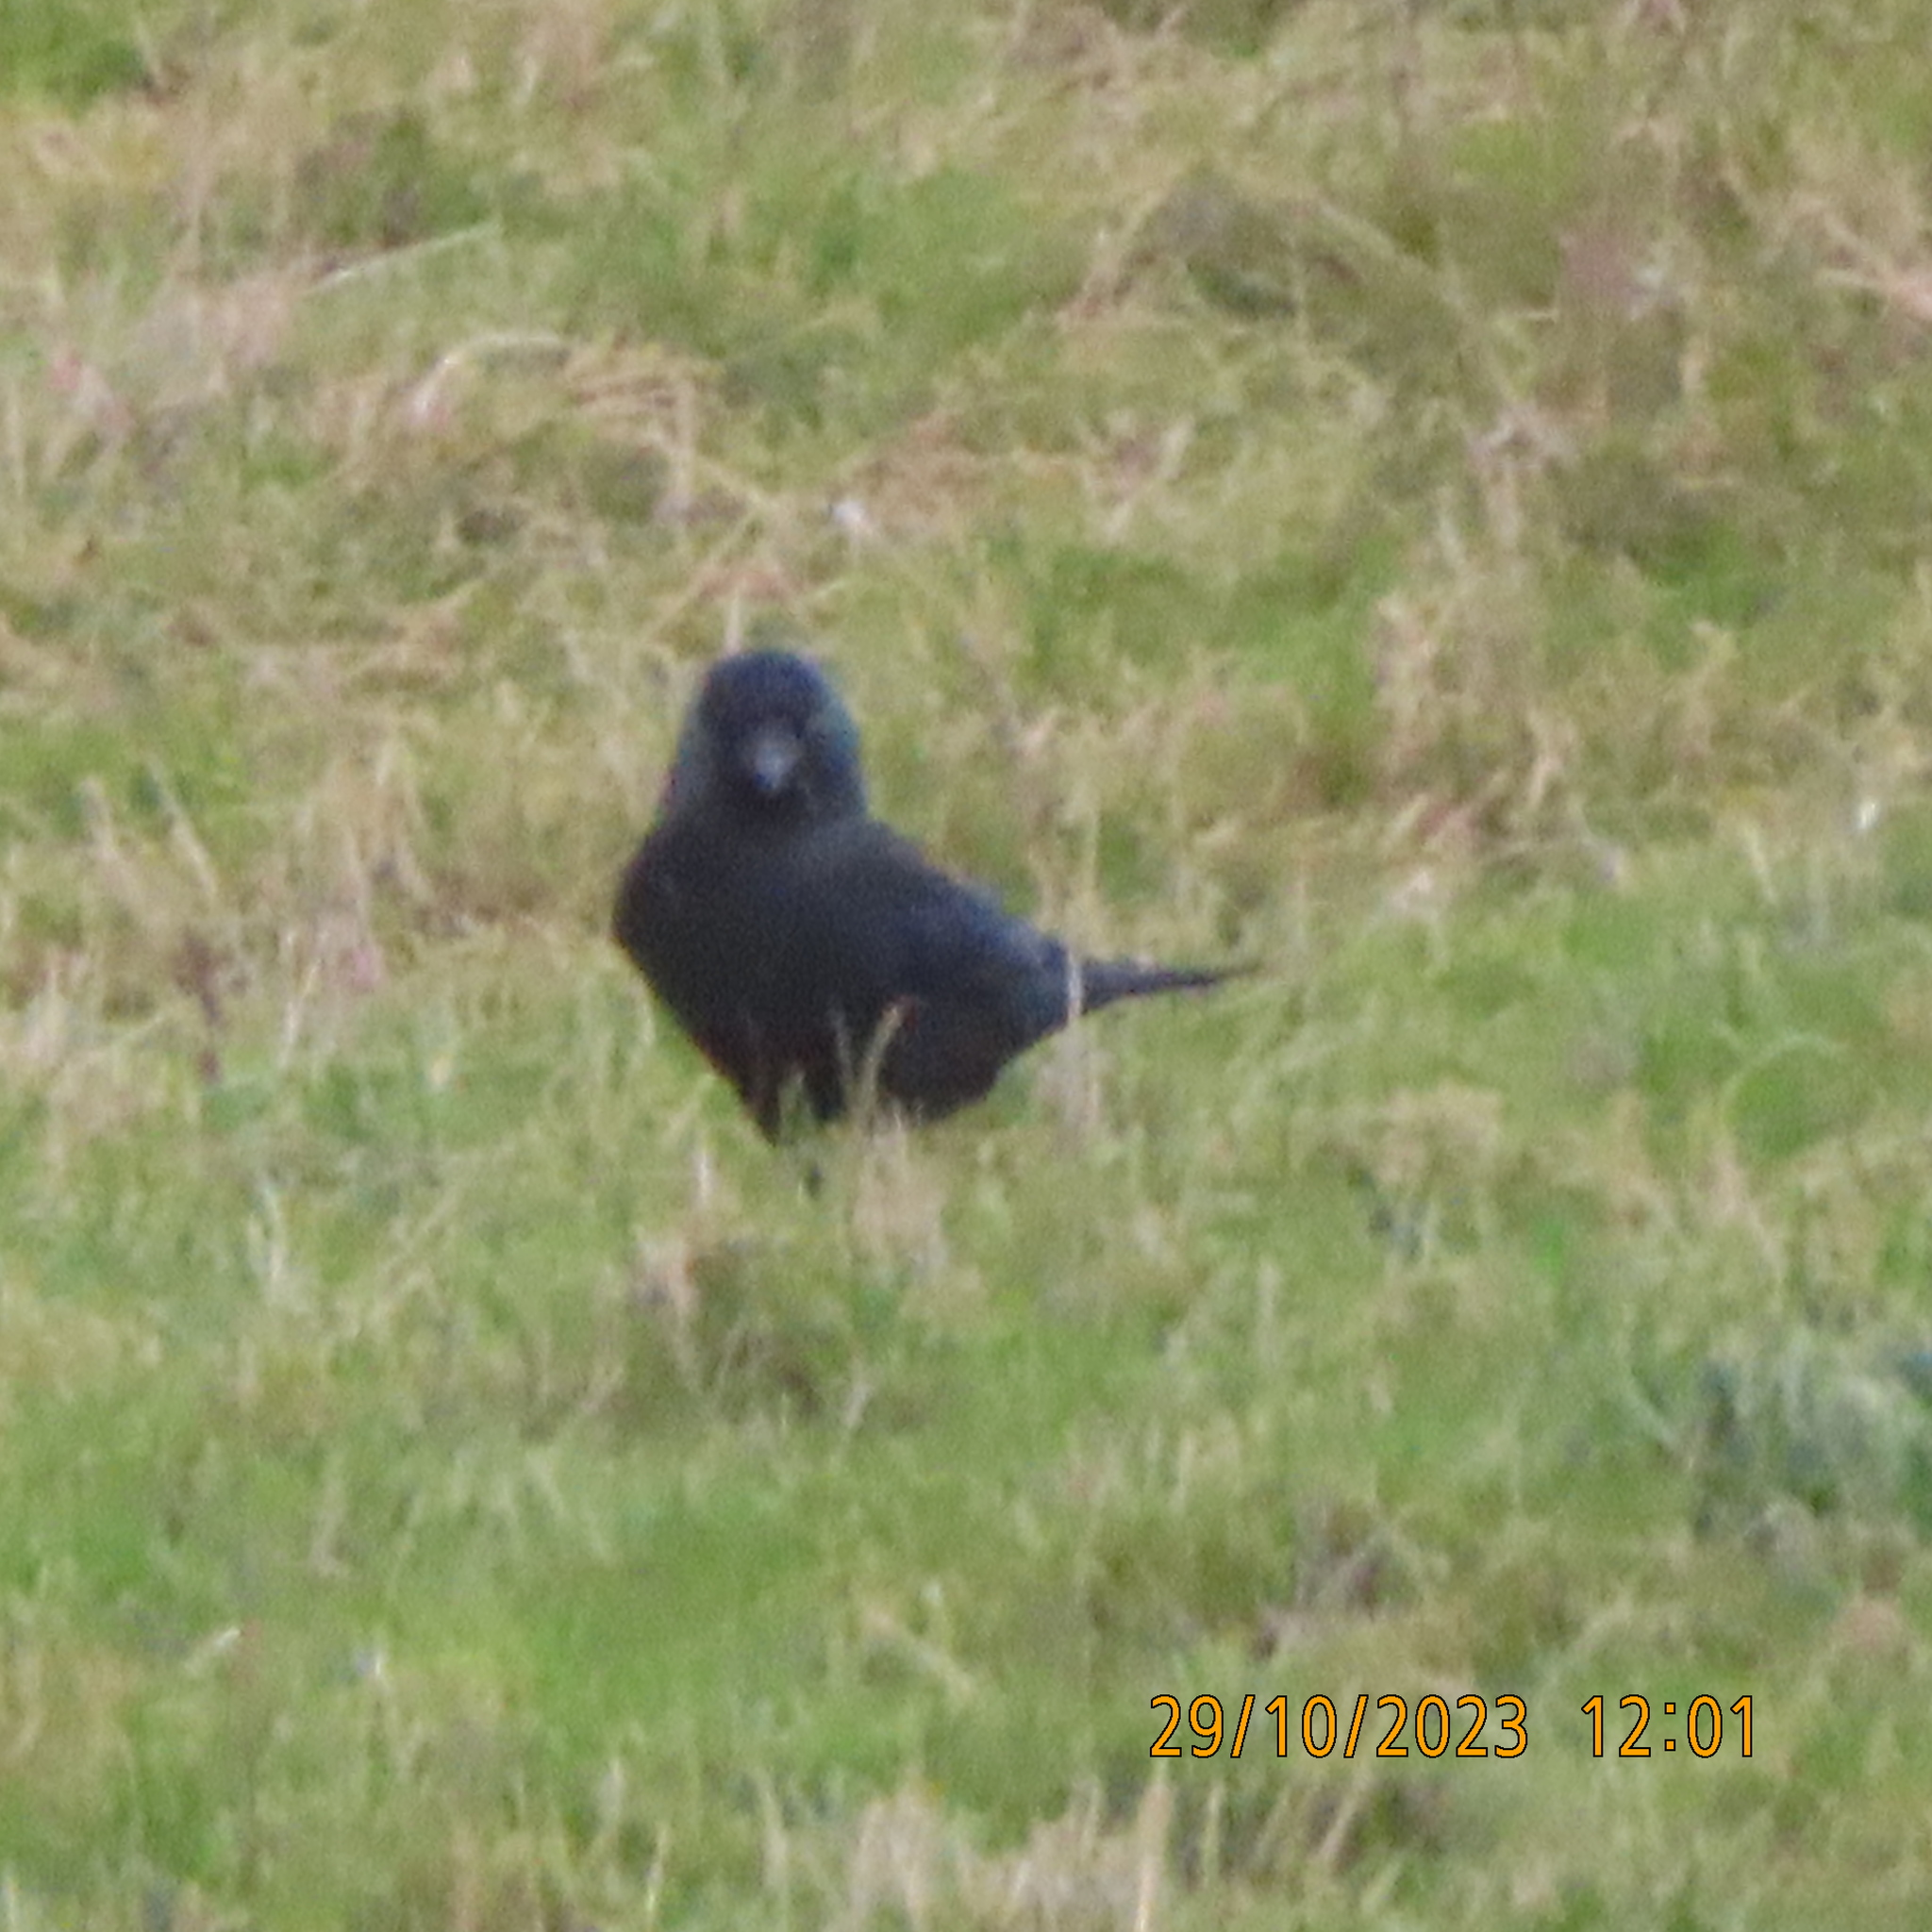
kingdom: Animalia
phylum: Chordata
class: Aves
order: Passeriformes
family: Corvidae
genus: Coloeus
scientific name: Coloeus monedula
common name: Western jackdaw
